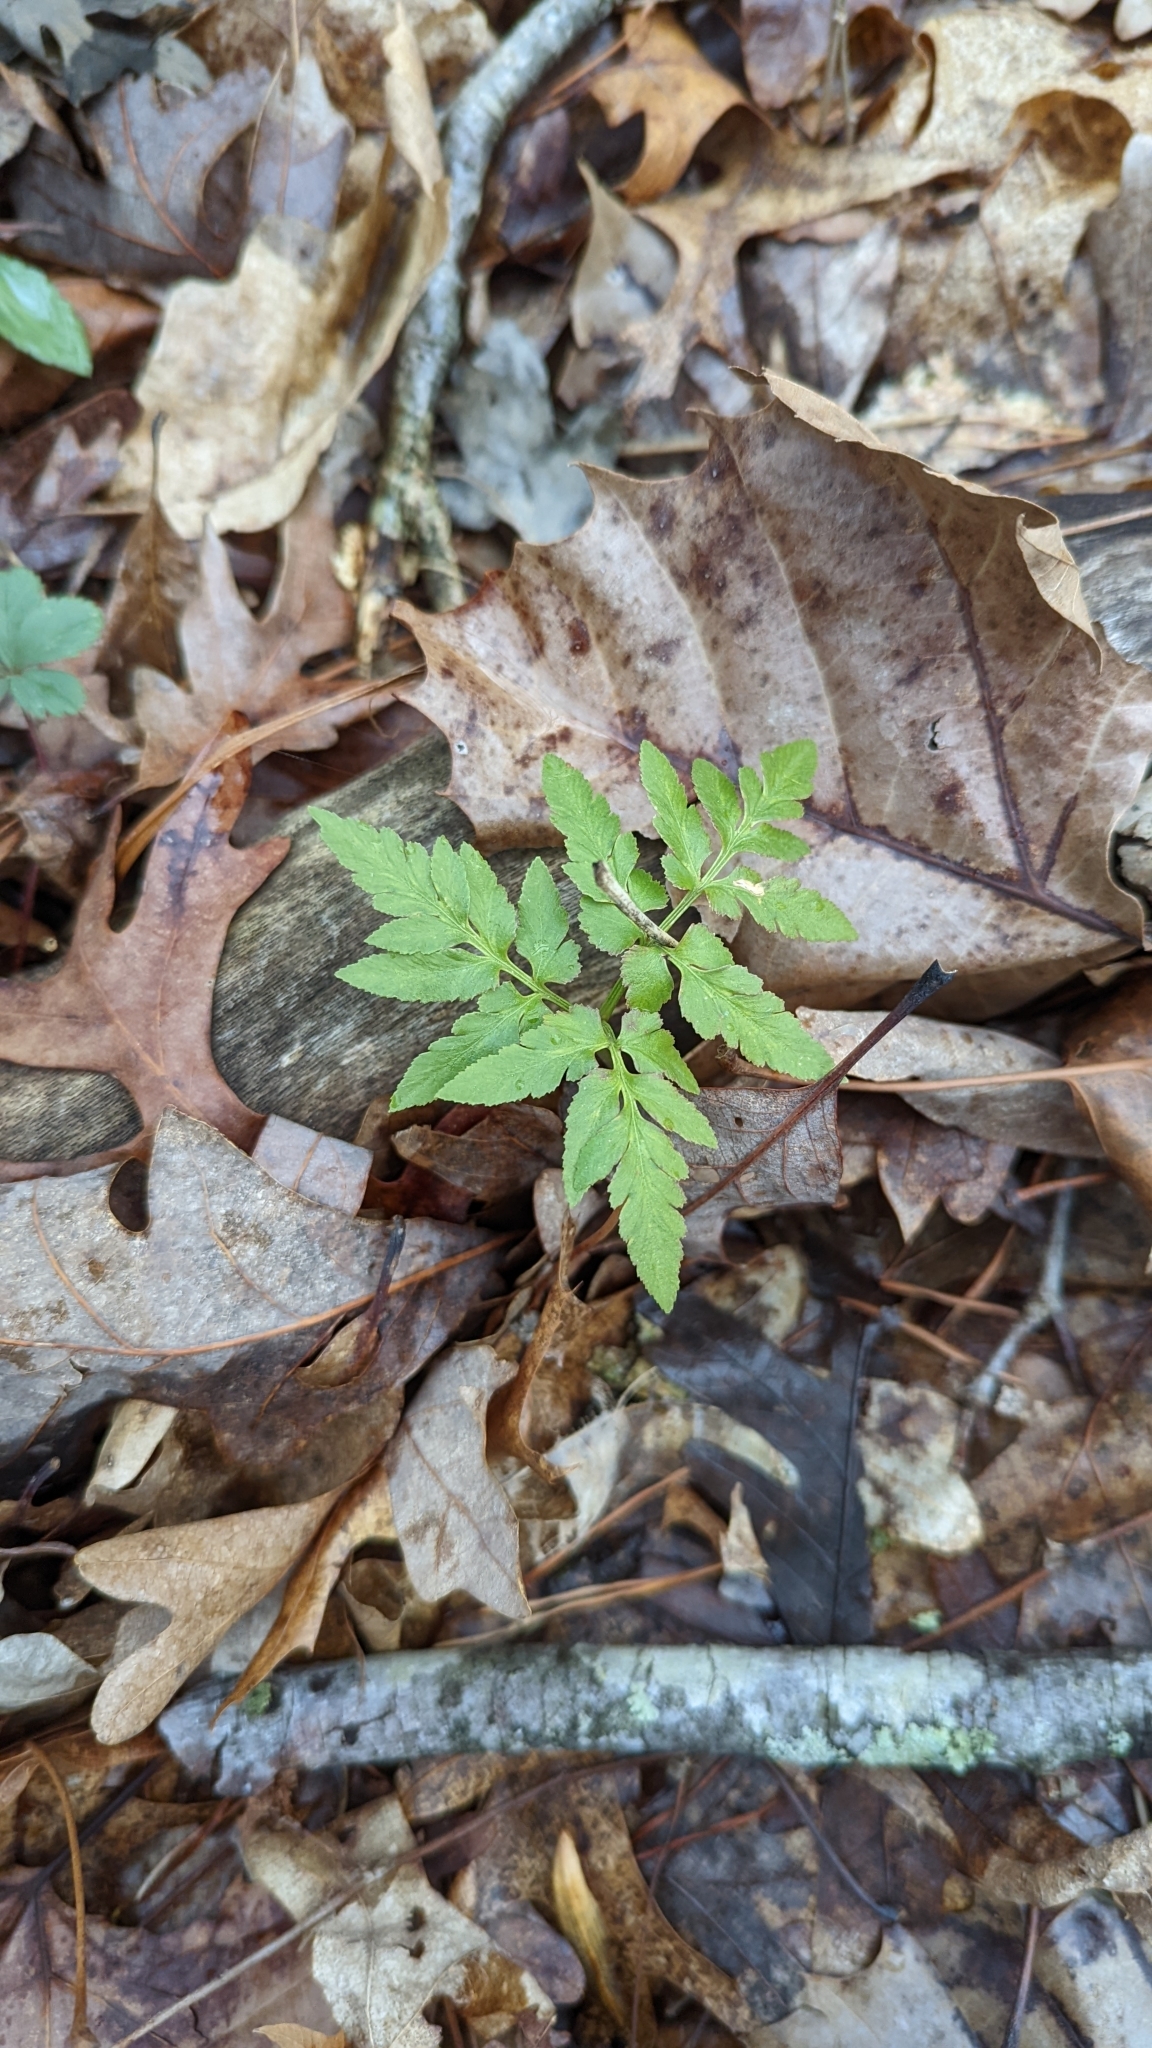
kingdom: Plantae
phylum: Tracheophyta
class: Polypodiopsida
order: Ophioglossales
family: Ophioglossaceae
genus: Sceptridium
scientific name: Sceptridium dissectum
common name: Cut-leaved grapefern
